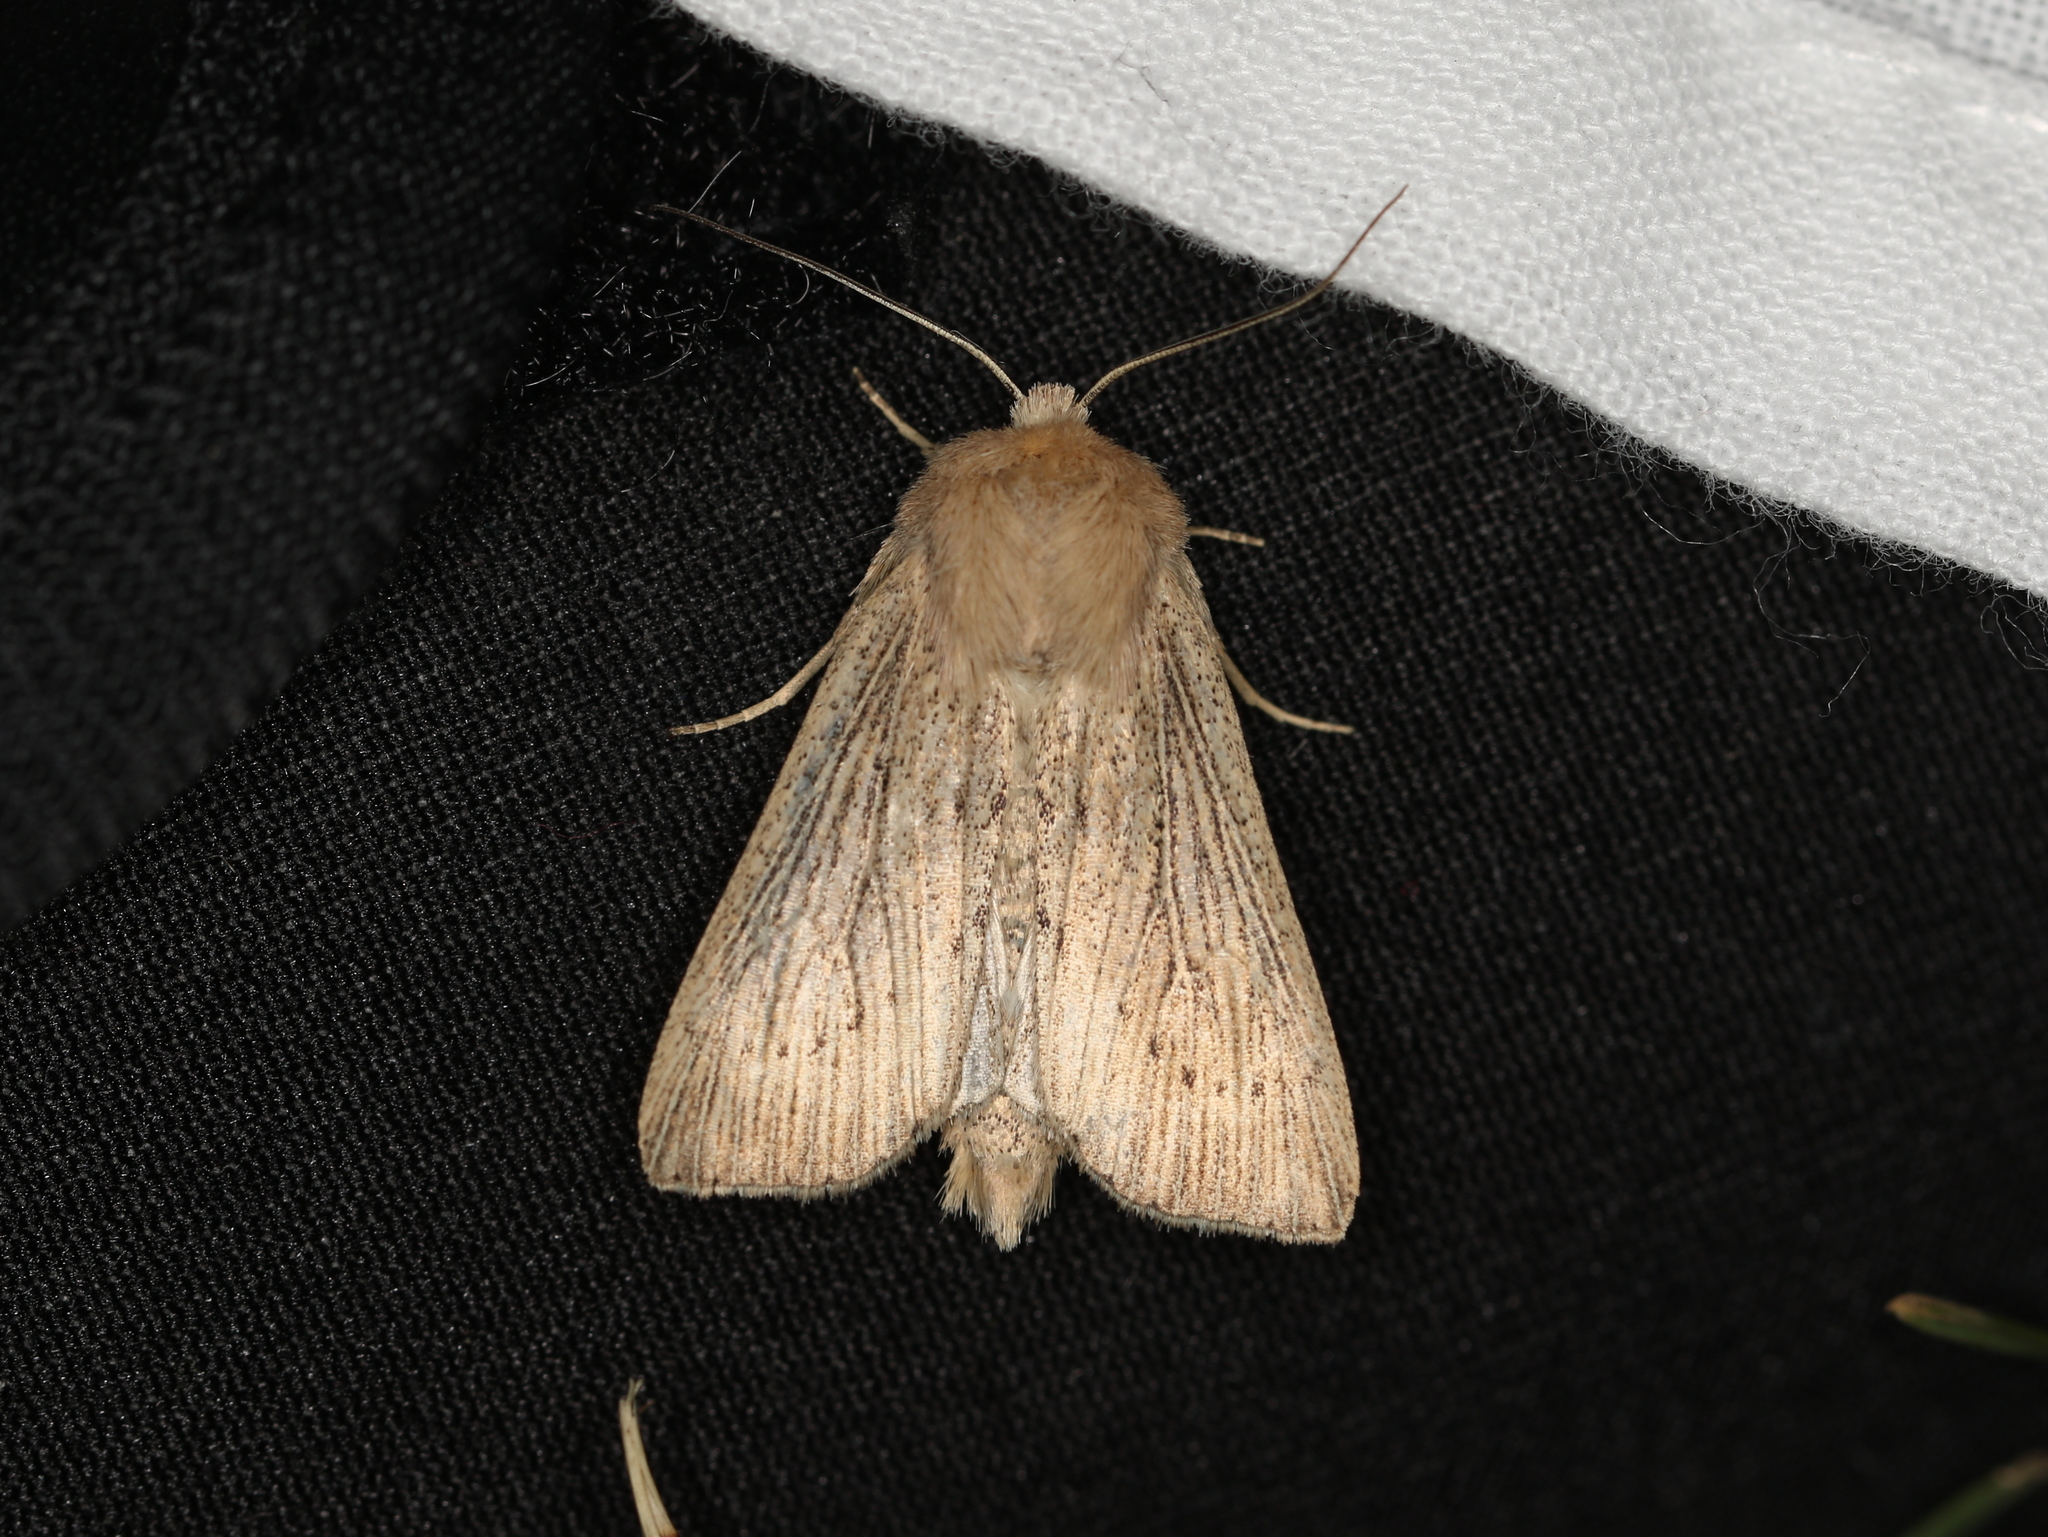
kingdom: Animalia
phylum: Arthropoda
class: Insecta
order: Lepidoptera
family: Noctuidae
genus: Leucania
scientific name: Leucania obsoleta
